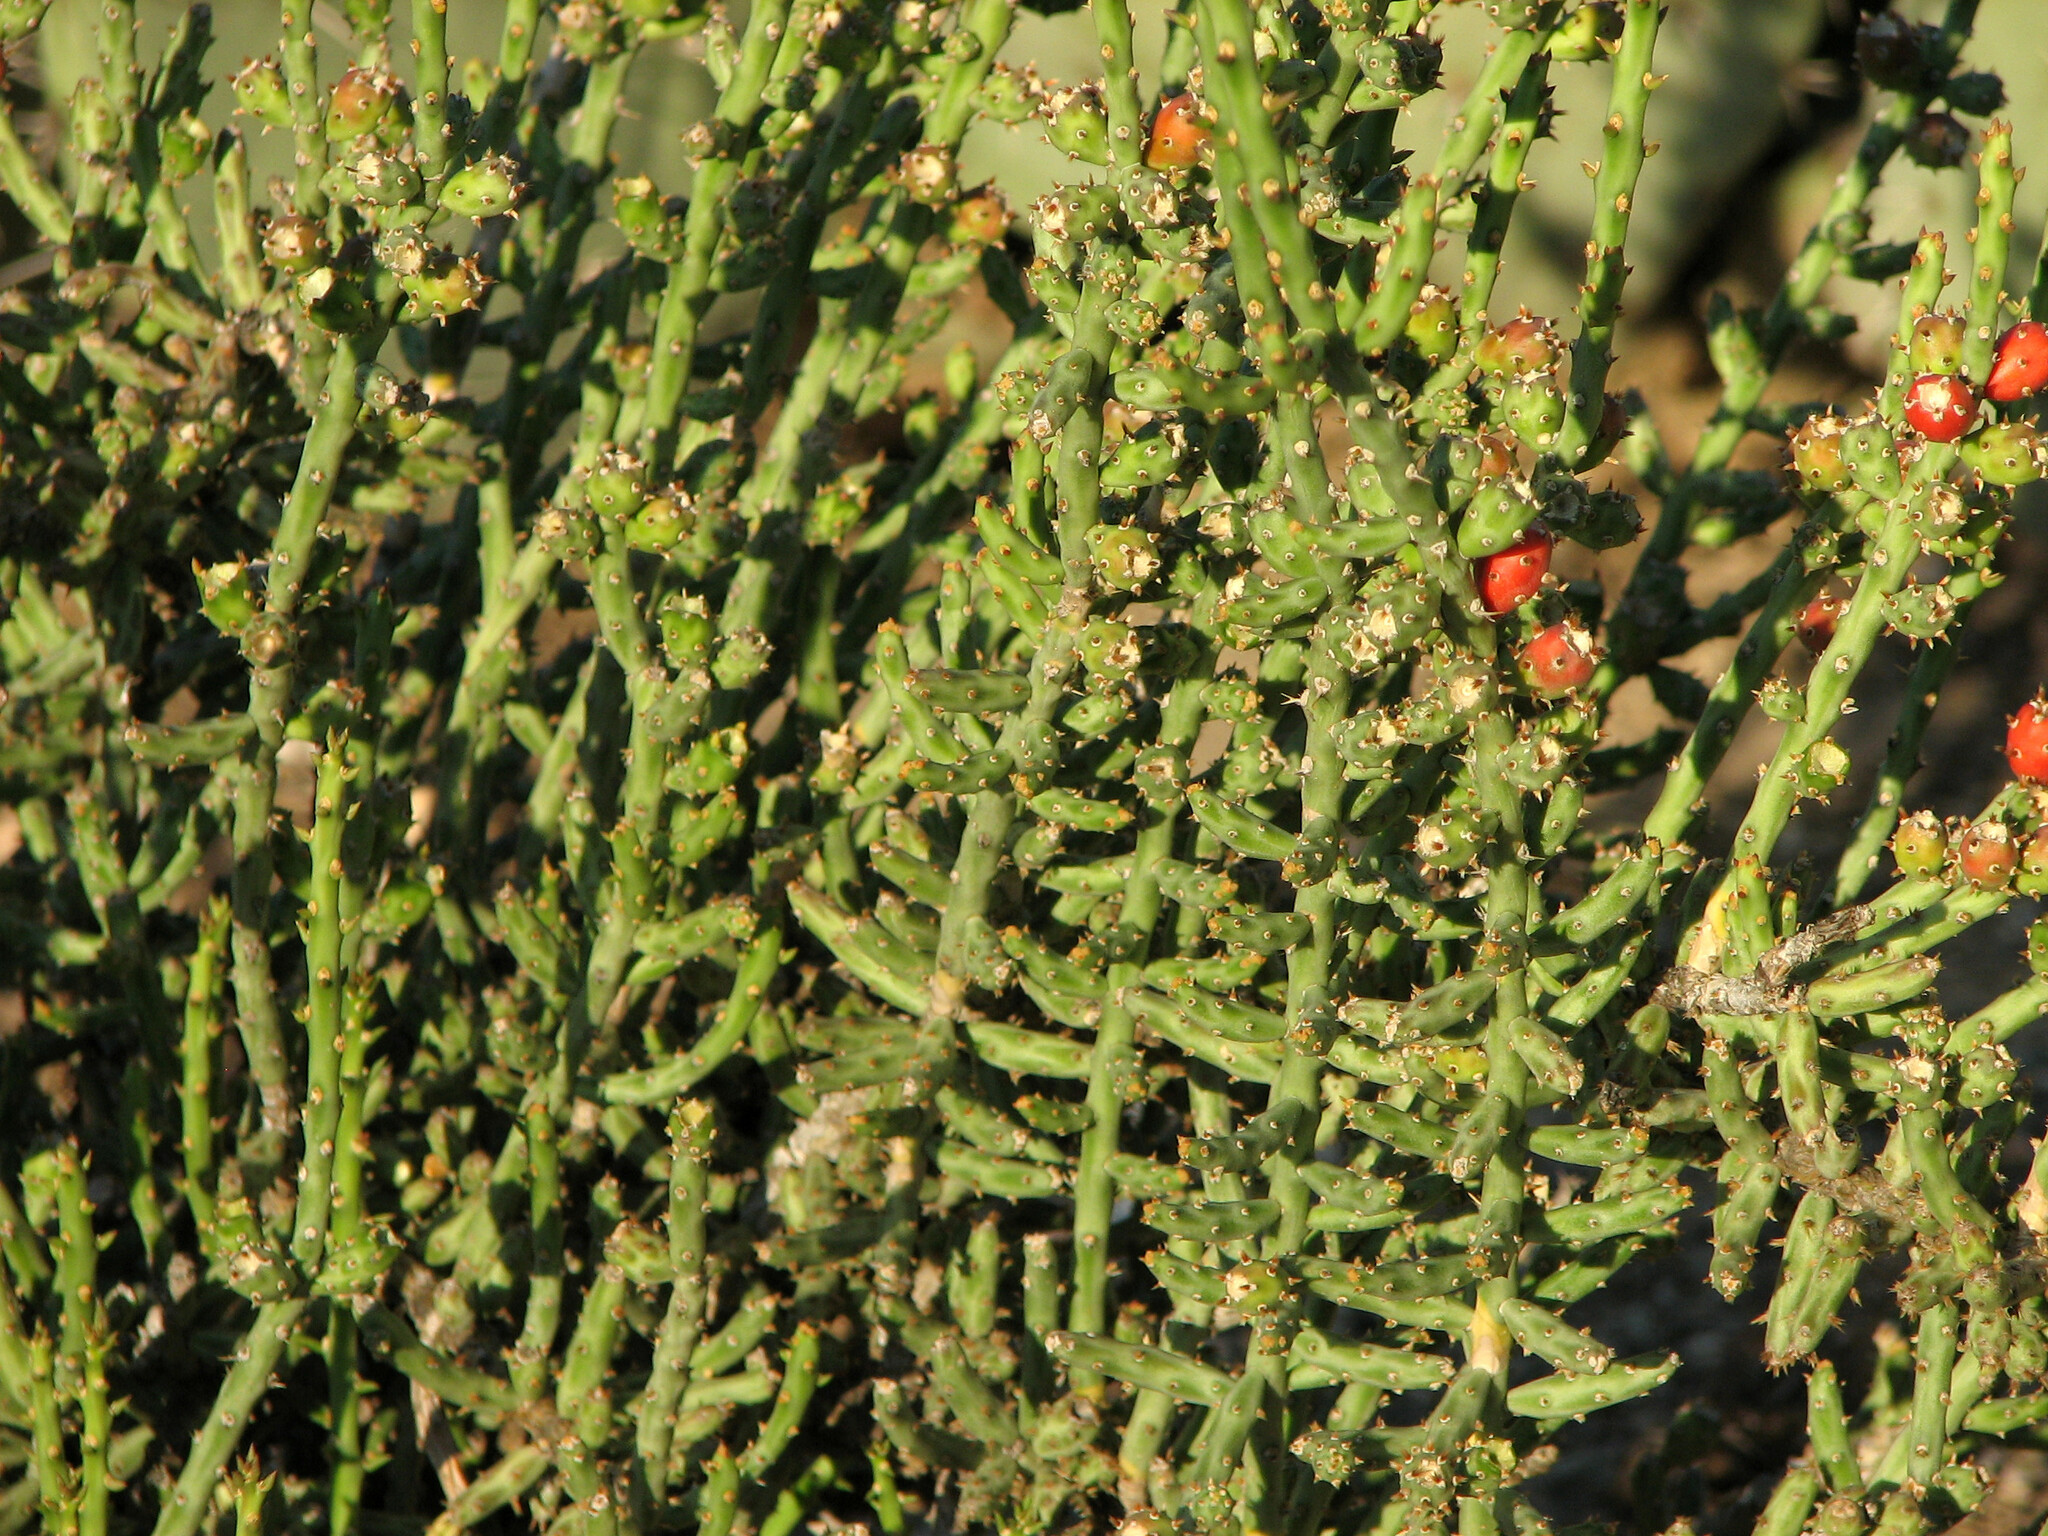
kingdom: Plantae
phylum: Tracheophyta
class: Magnoliopsida
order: Caryophyllales
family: Cactaceae
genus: Cylindropuntia
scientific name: Cylindropuntia leptocaulis
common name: Christmas cactus
